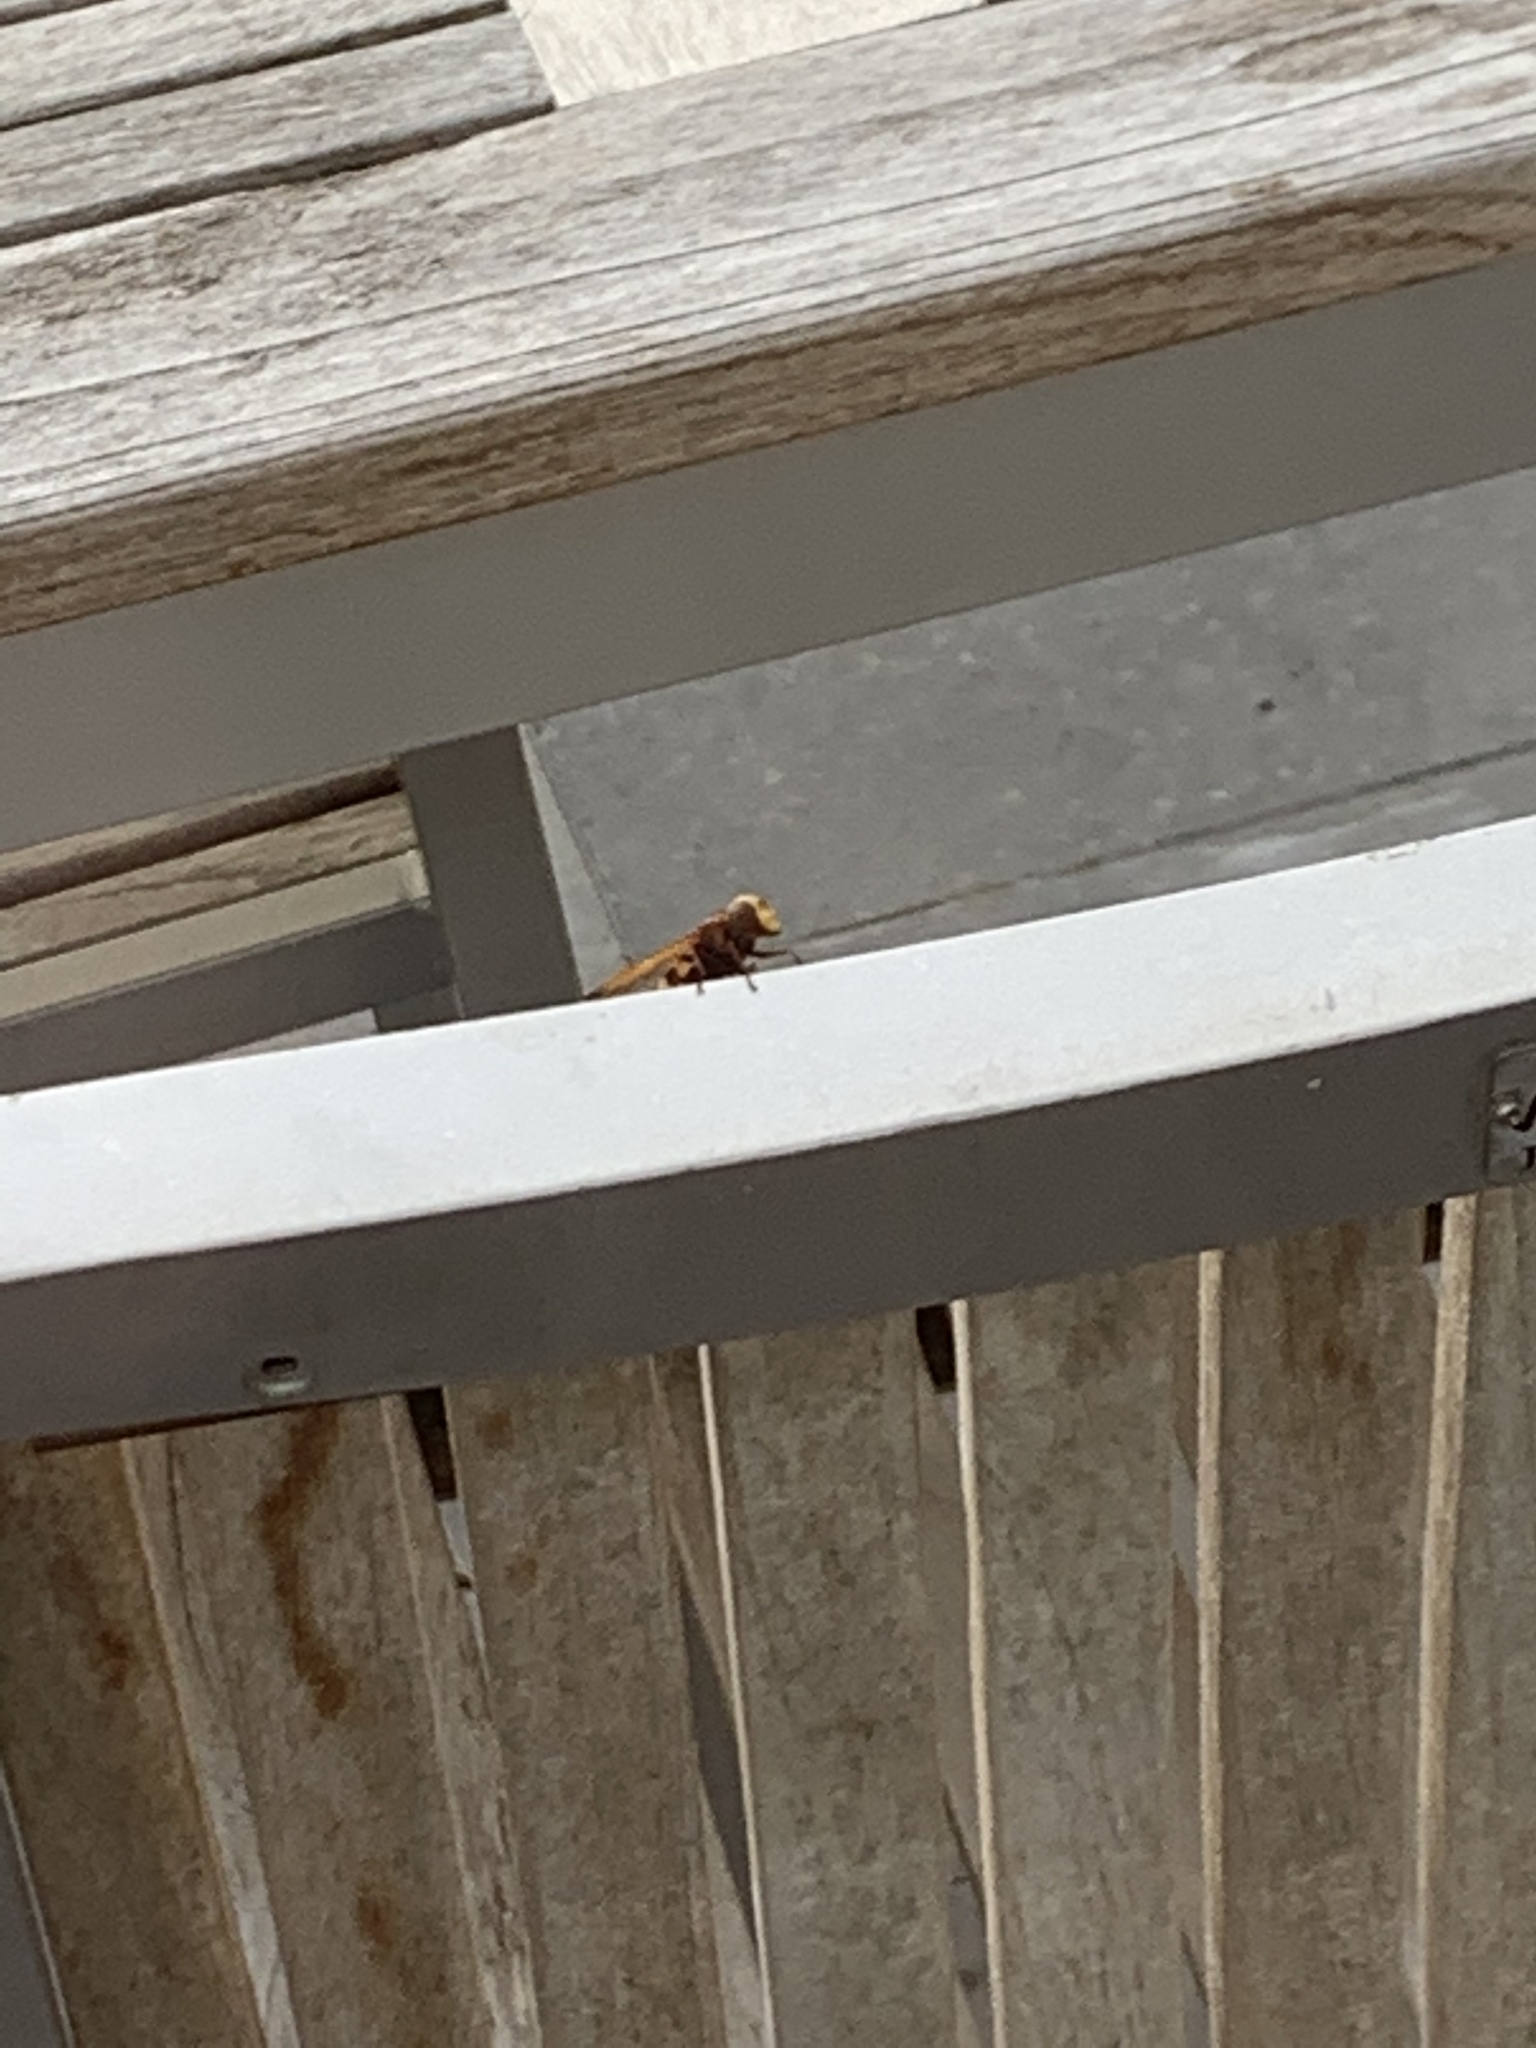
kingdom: Animalia
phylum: Arthropoda
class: Insecta
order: Diptera
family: Syrphidae
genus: Volucella
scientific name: Volucella zonaria
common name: Hornet hoverfly
